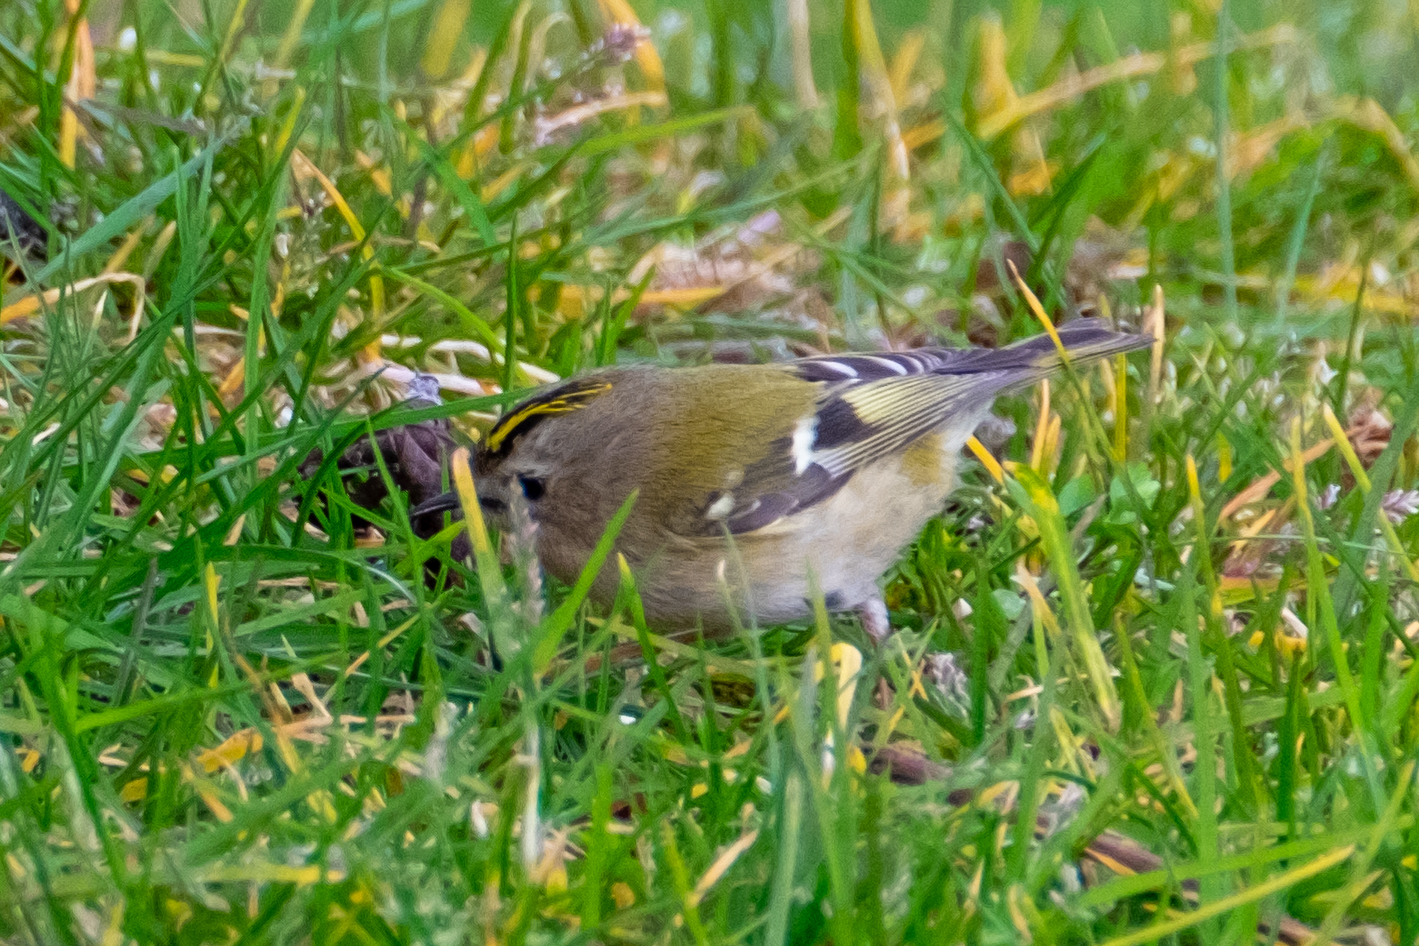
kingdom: Animalia
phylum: Chordata
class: Aves
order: Passeriformes
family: Regulidae
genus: Regulus
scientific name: Regulus regulus
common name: Goldcrest
